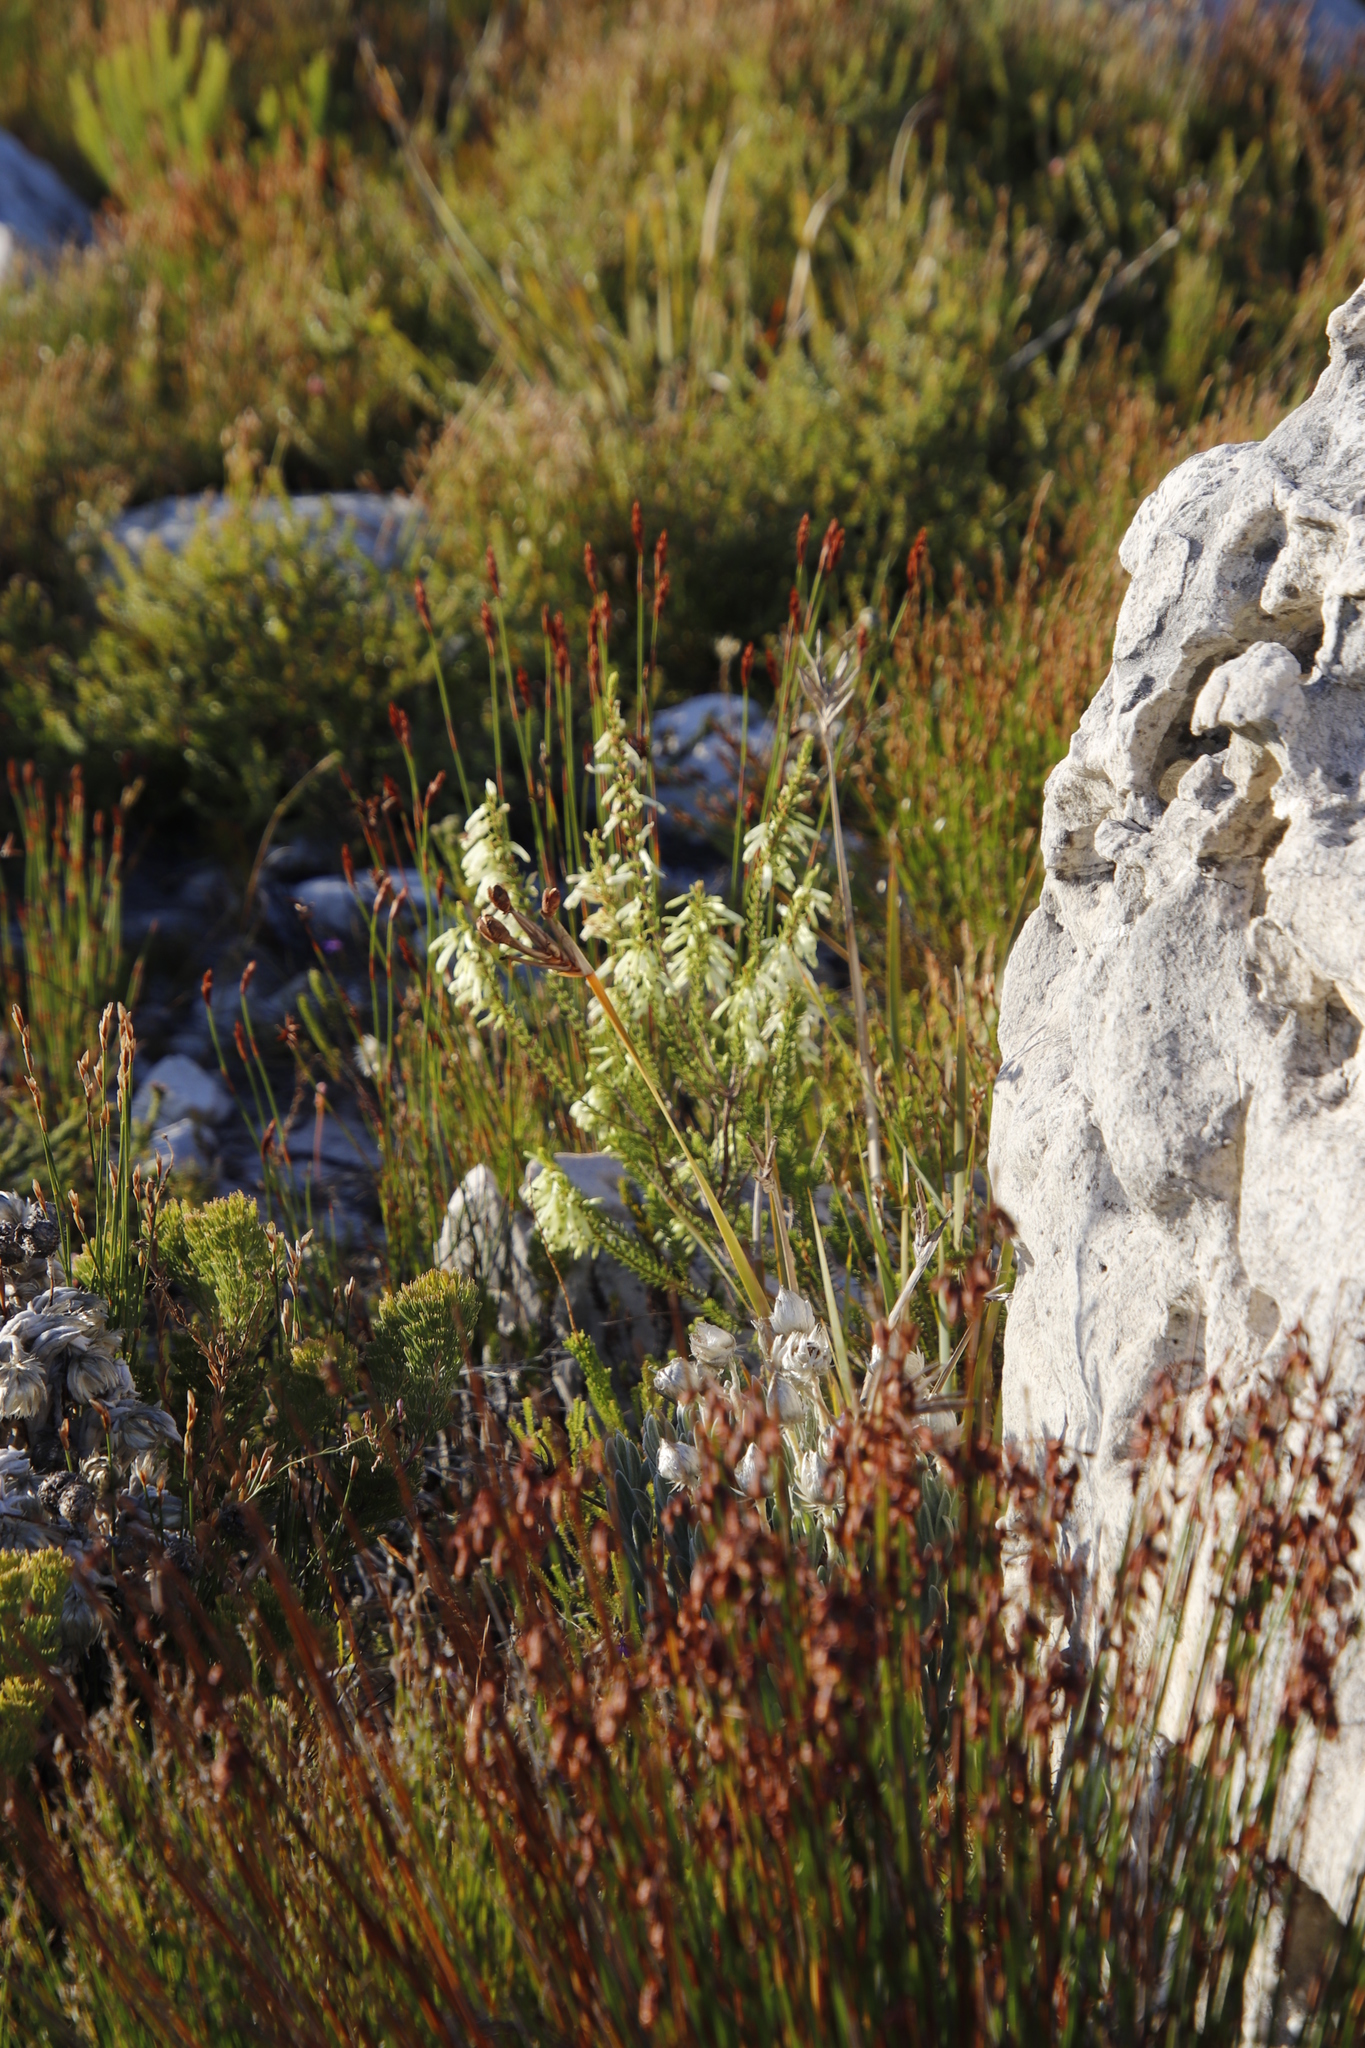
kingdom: Plantae
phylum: Tracheophyta
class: Magnoliopsida
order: Ericales
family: Ericaceae
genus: Erica
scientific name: Erica mammosa
